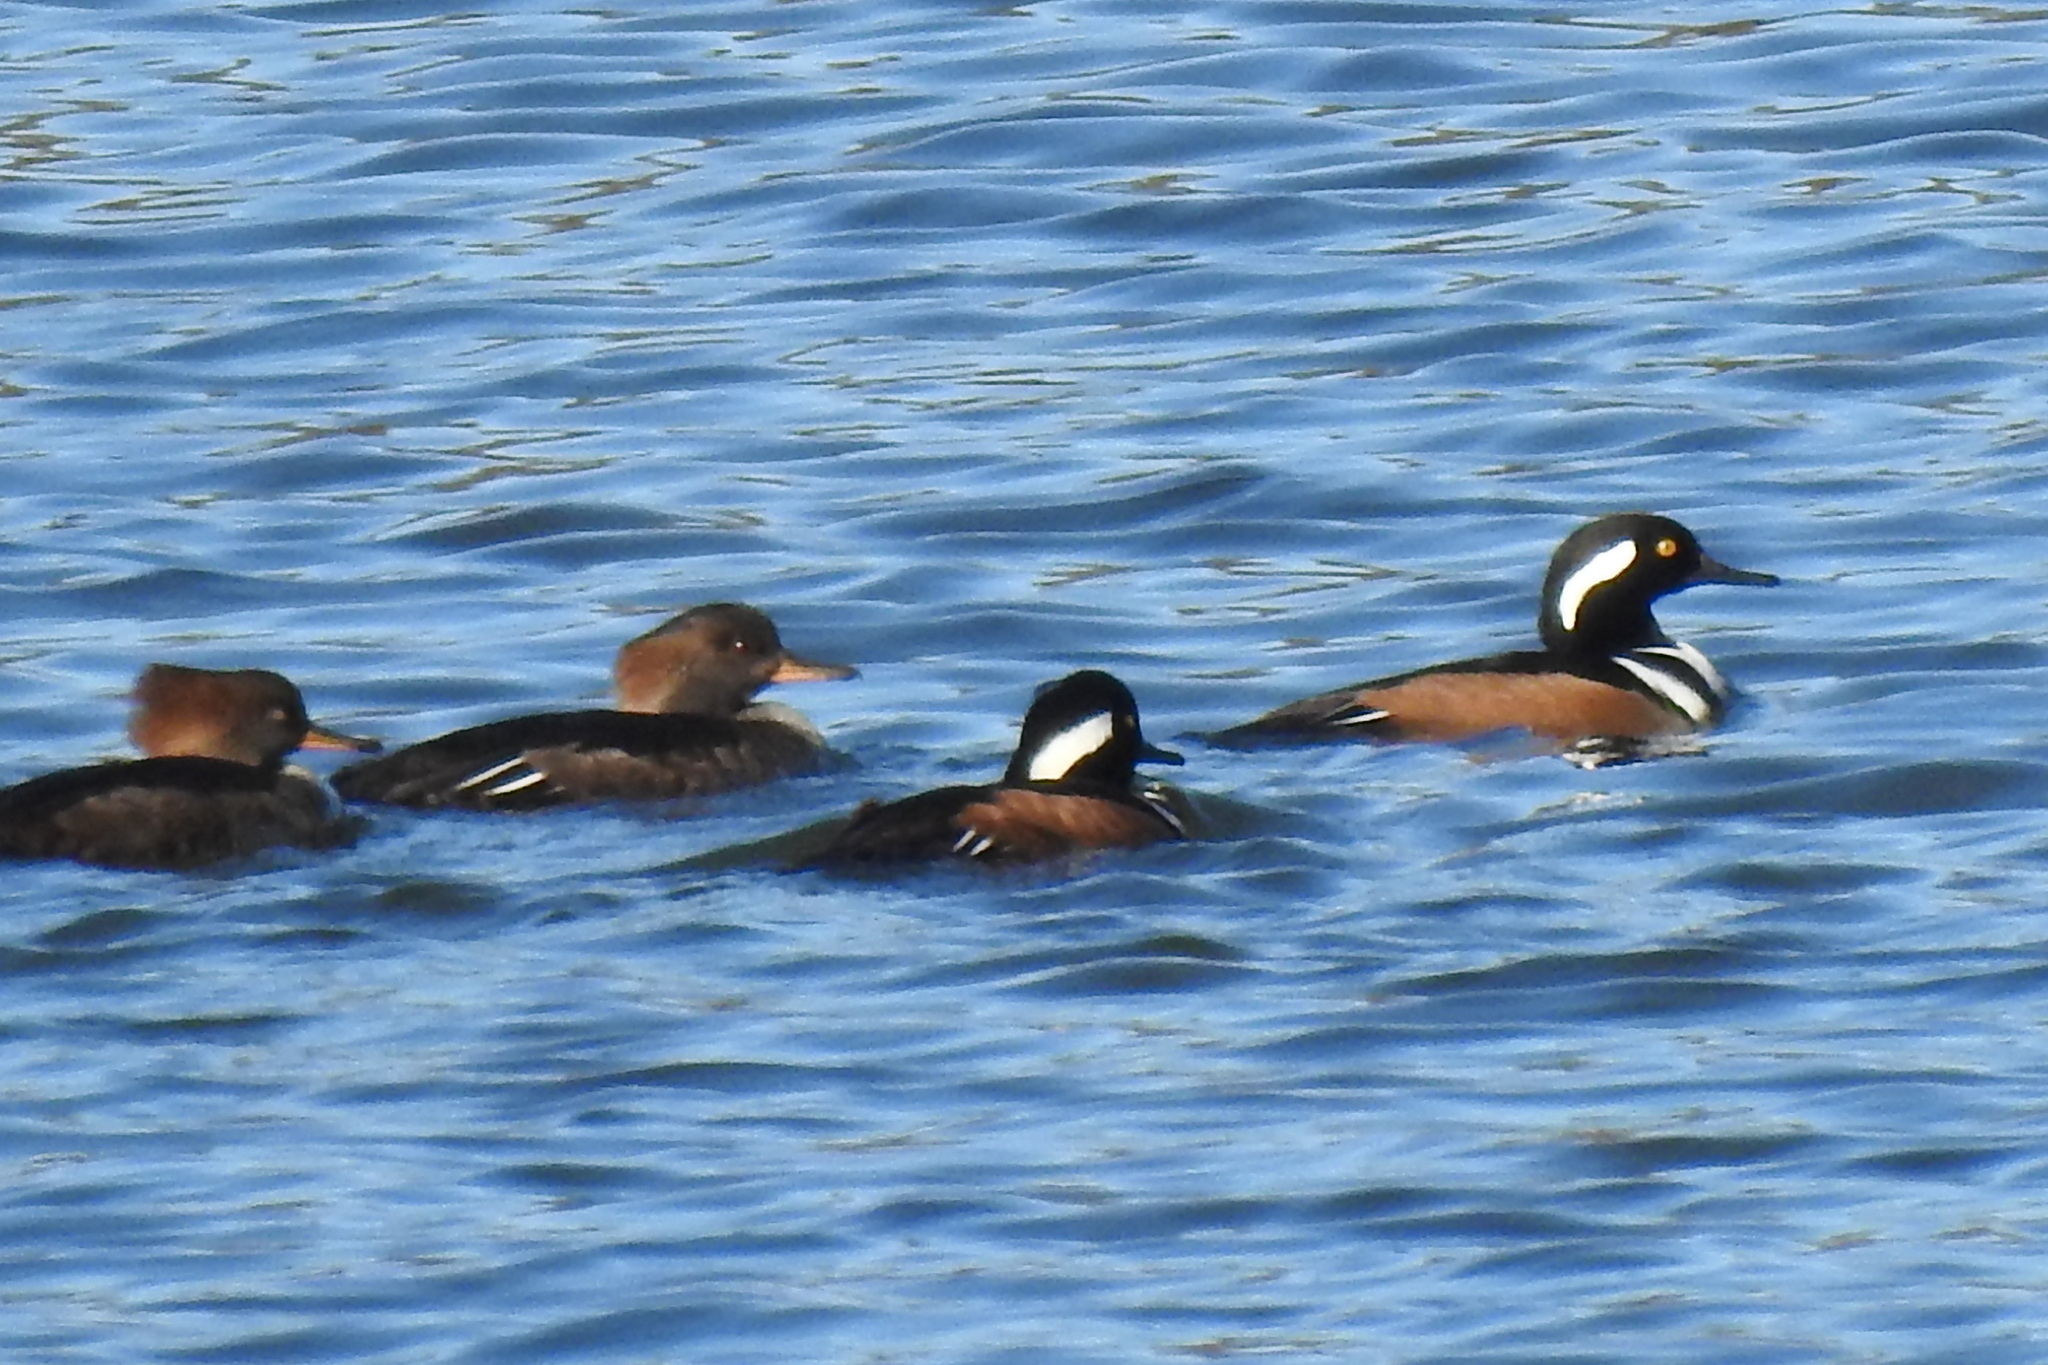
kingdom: Animalia
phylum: Chordata
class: Aves
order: Anseriformes
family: Anatidae
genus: Lophodytes
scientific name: Lophodytes cucullatus
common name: Hooded merganser
